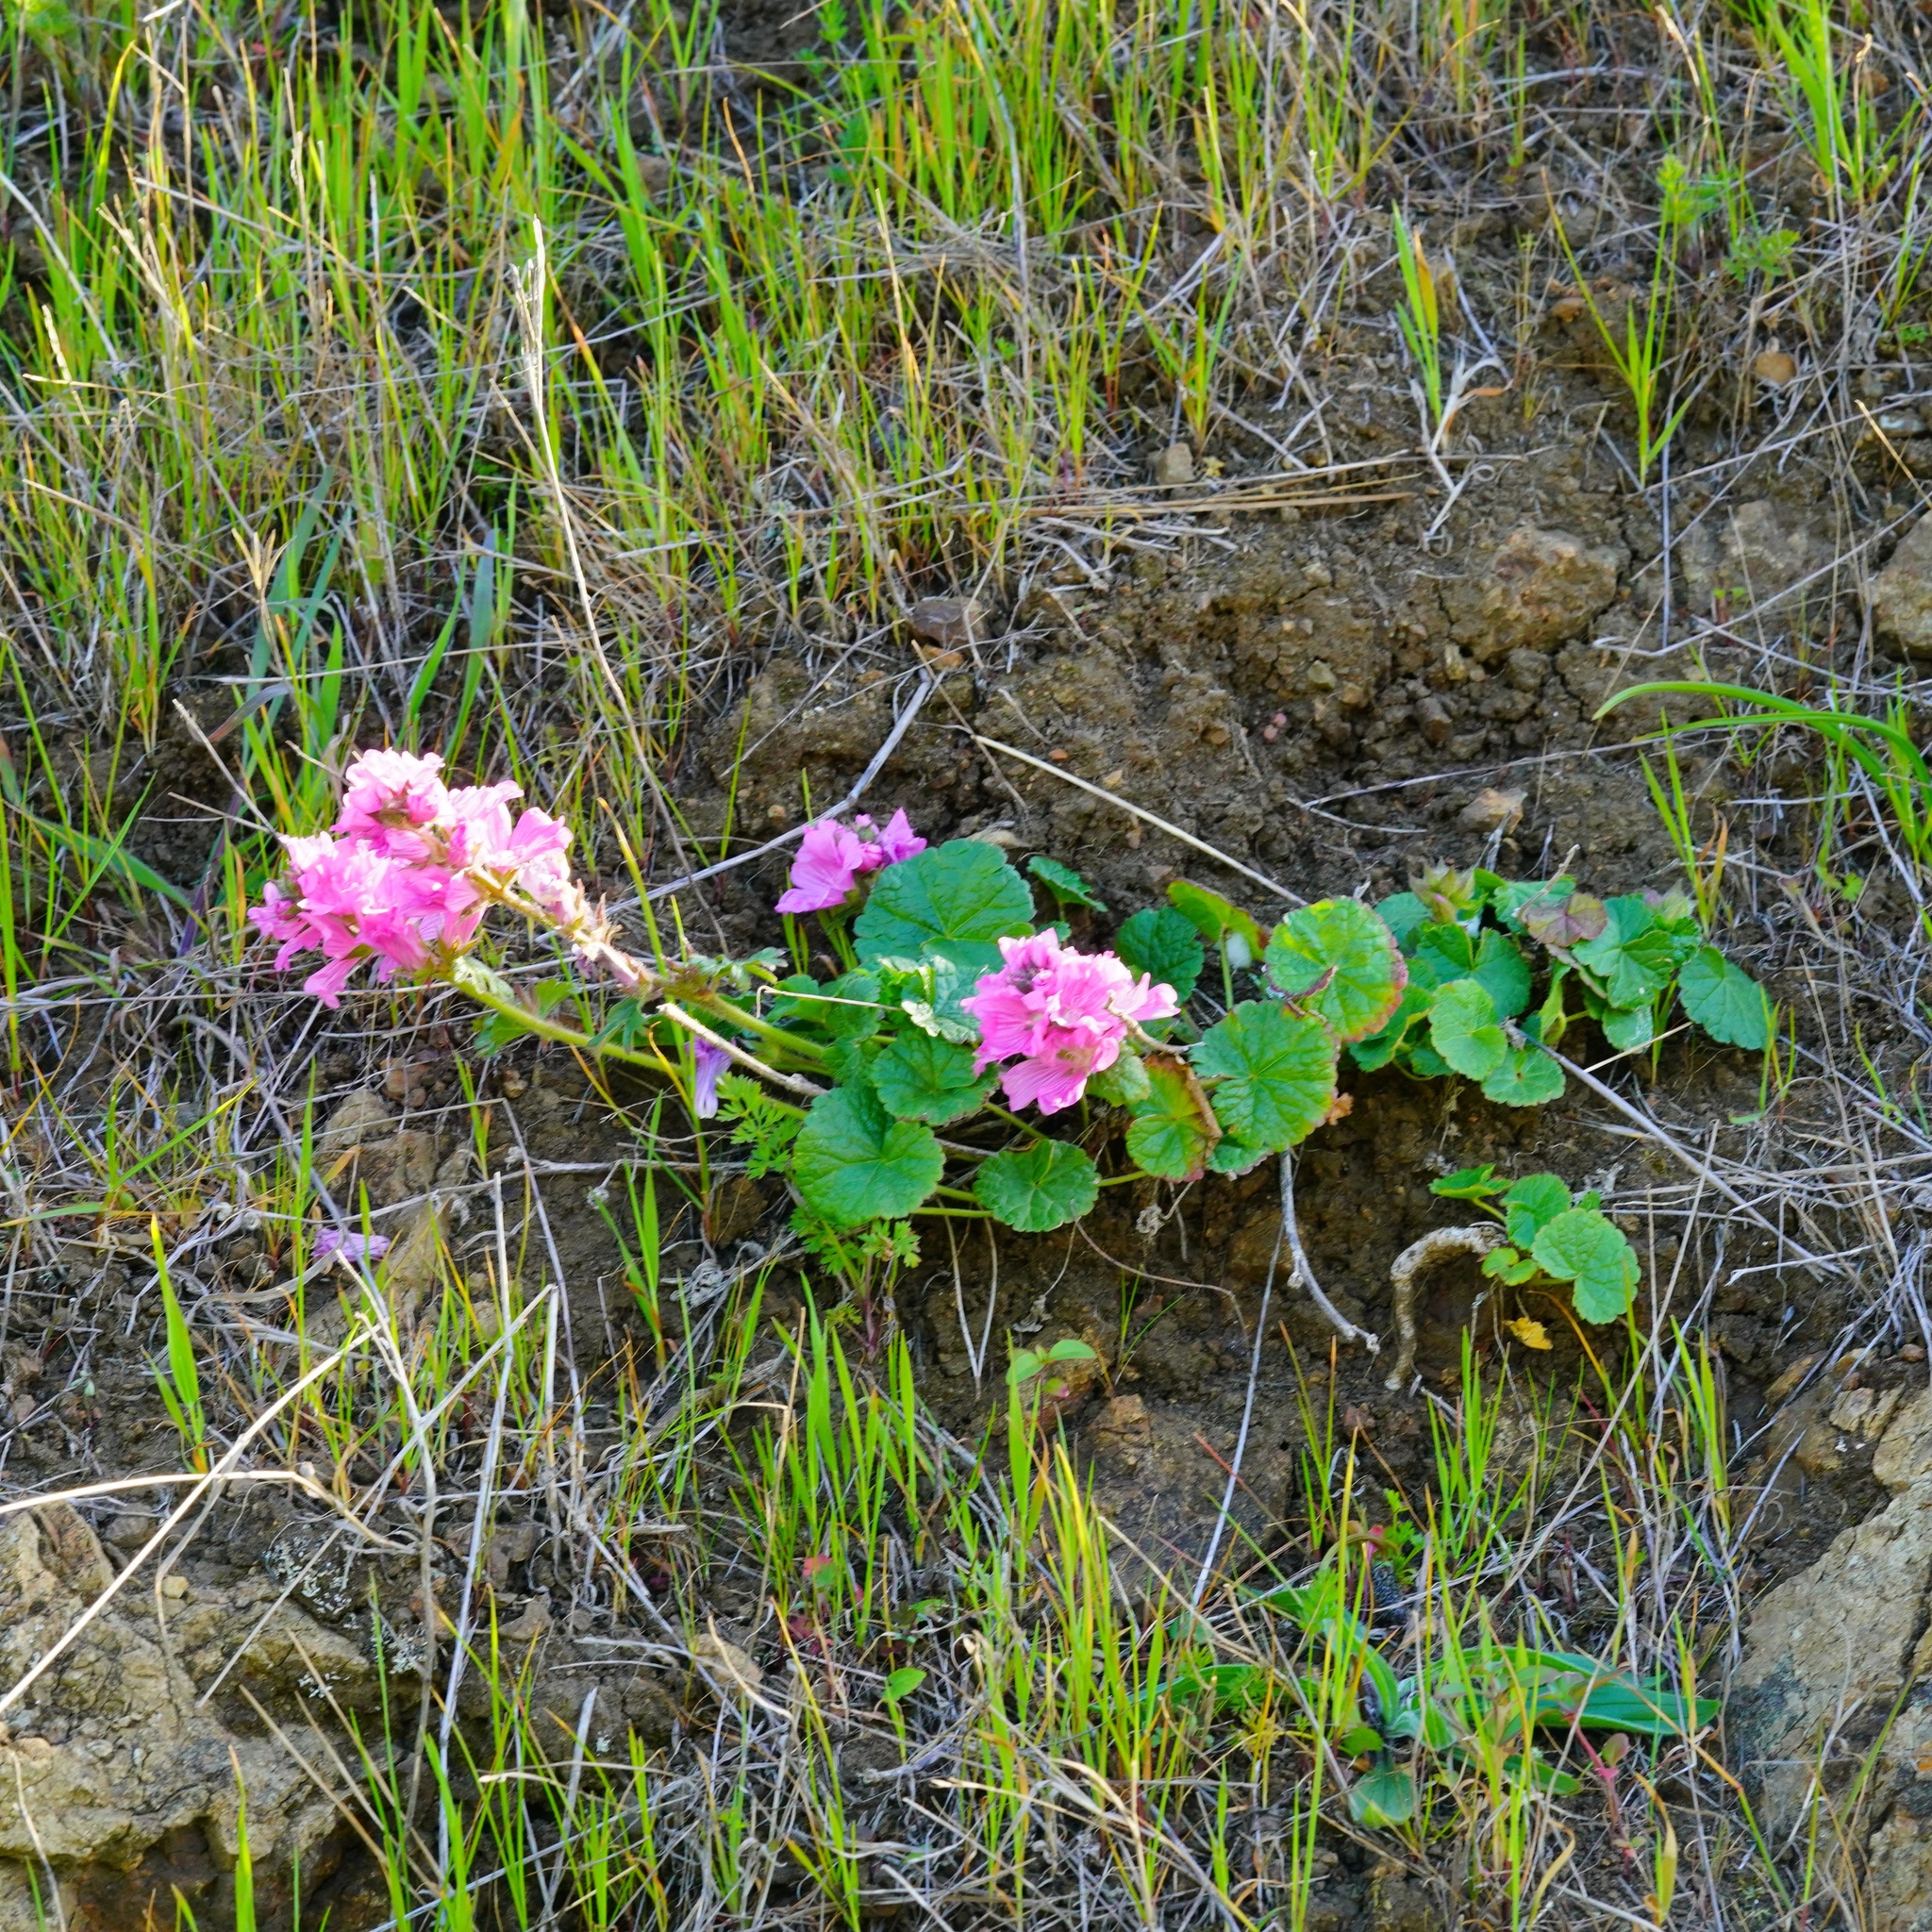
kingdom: Plantae
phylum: Tracheophyta
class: Magnoliopsida
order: Malvales
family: Malvaceae
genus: Sidalcea
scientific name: Sidalcea malviflora
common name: Greek mallow
